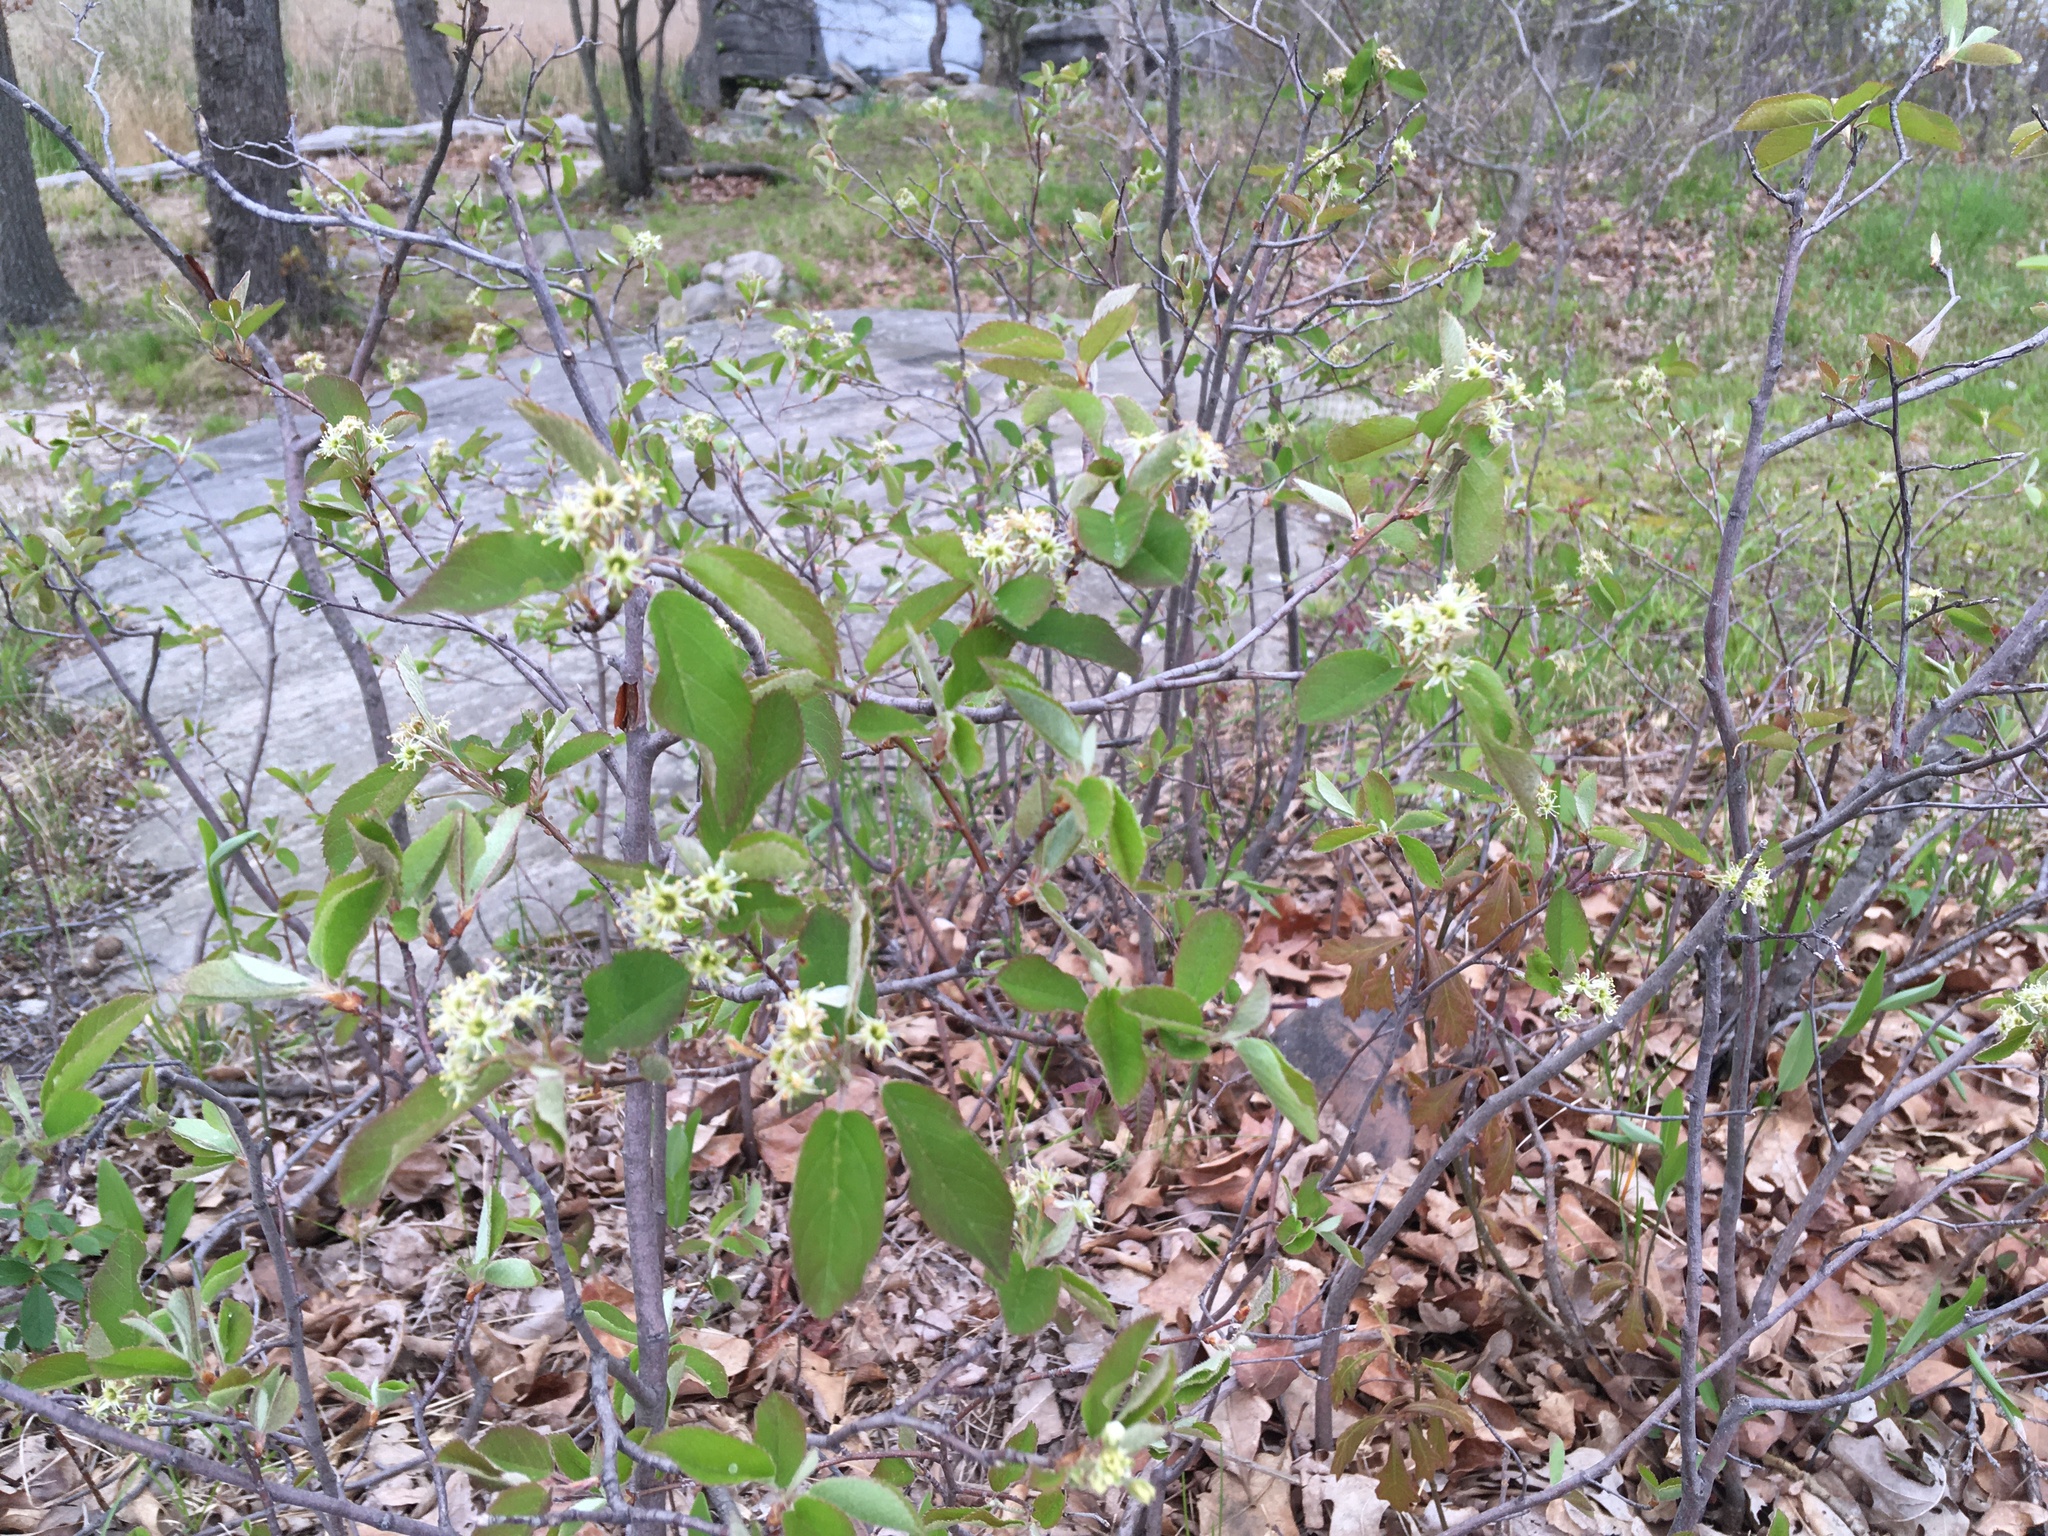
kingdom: Plantae
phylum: Tracheophyta
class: Magnoliopsida
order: Rosales
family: Rosaceae
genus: Amelanchier
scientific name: Amelanchier nantucketensis
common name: Nantucket shadbush
